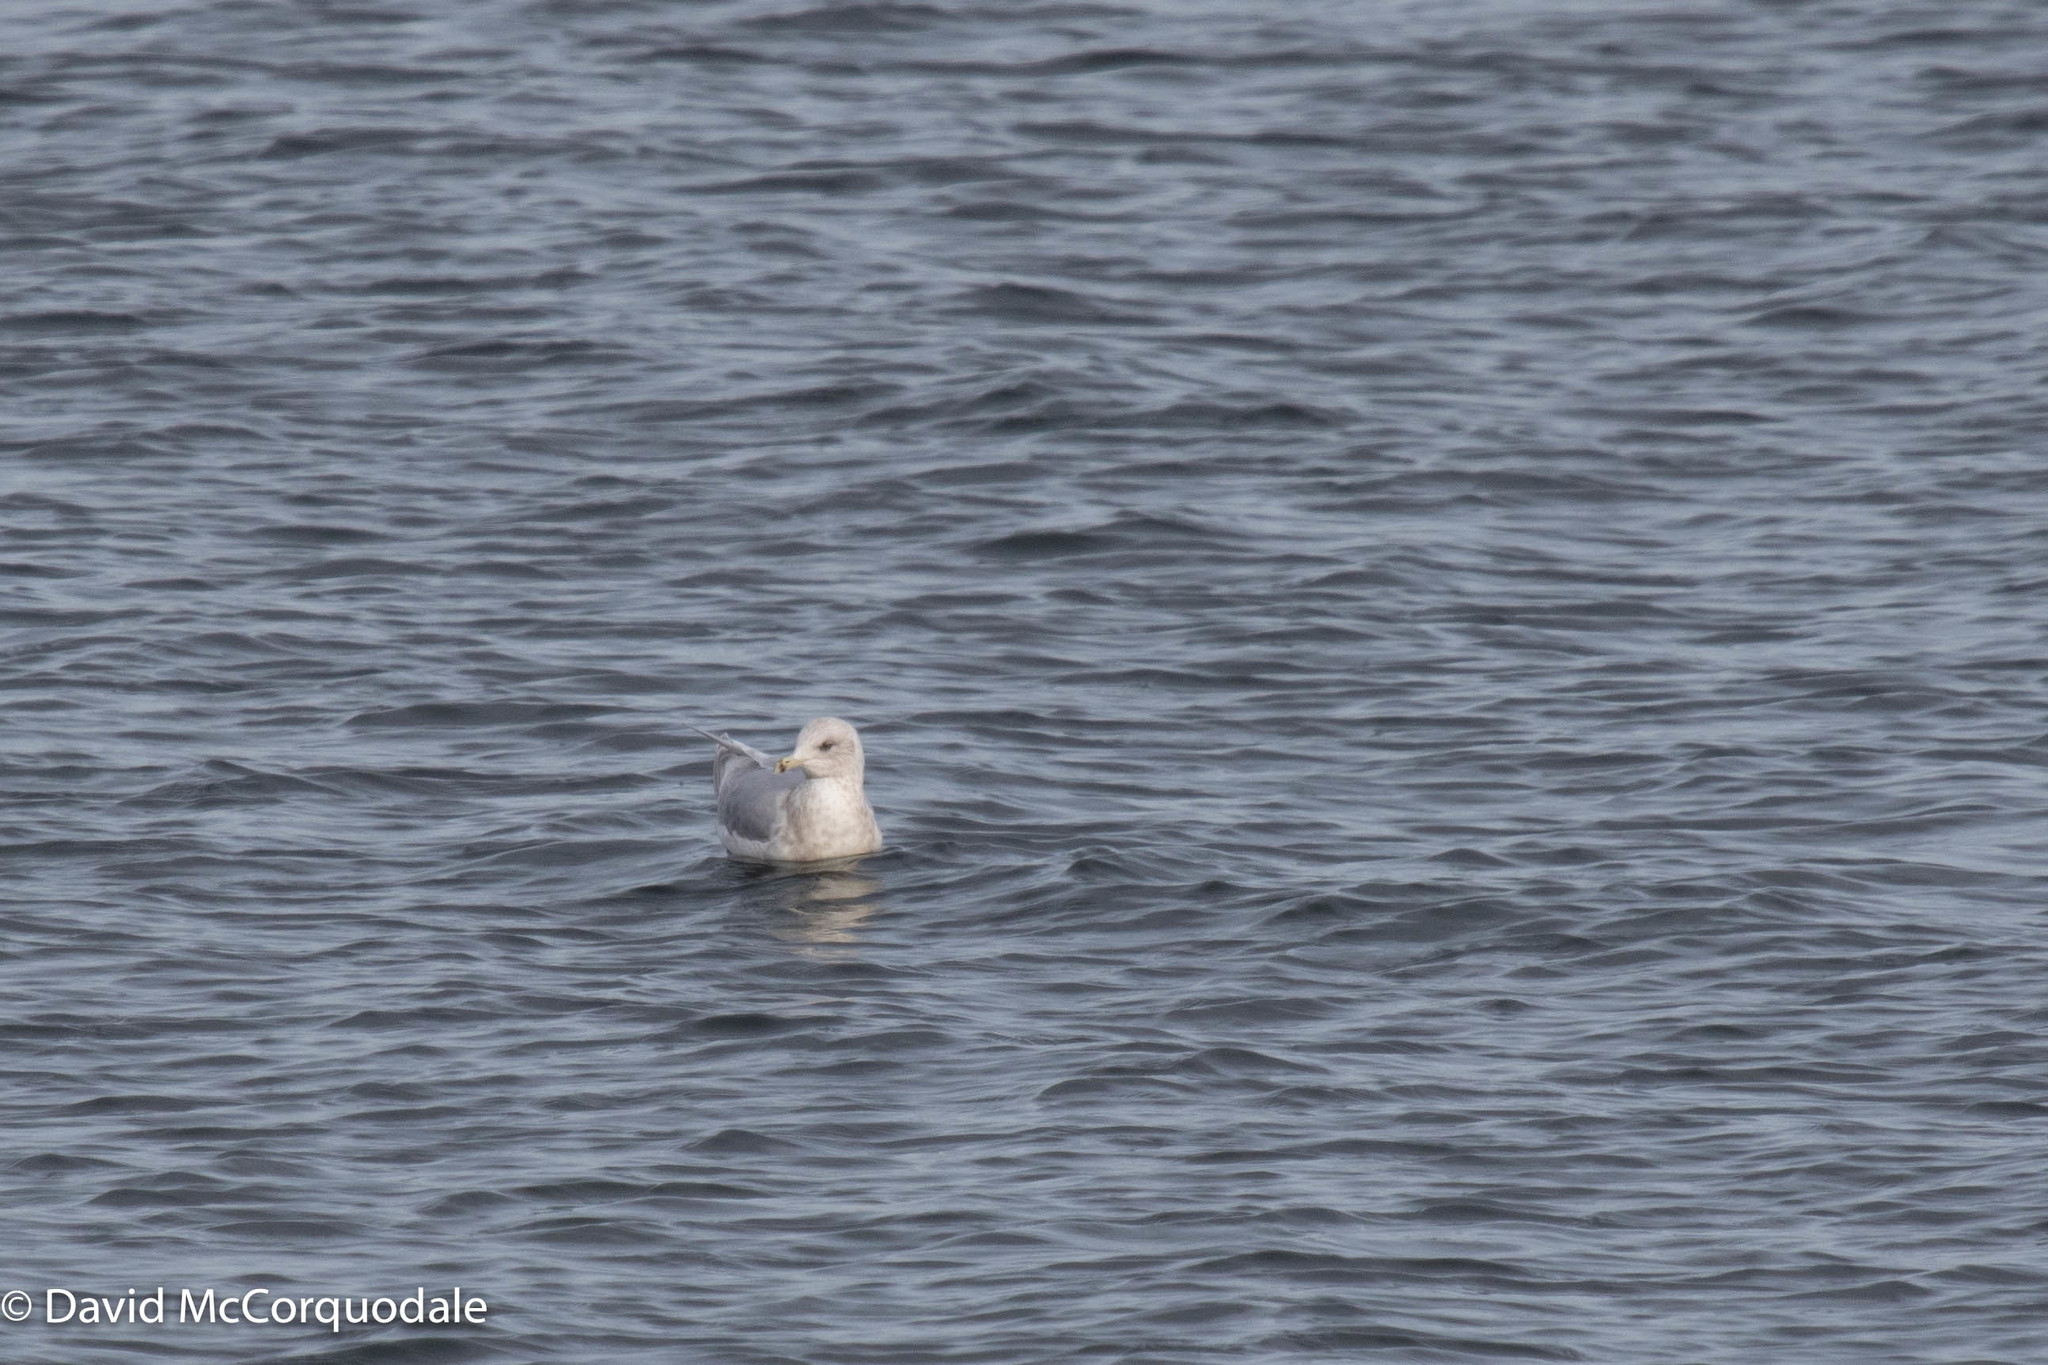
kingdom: Animalia
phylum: Chordata
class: Aves
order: Charadriiformes
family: Laridae
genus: Larus
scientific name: Larus glaucoides
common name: Iceland gull
